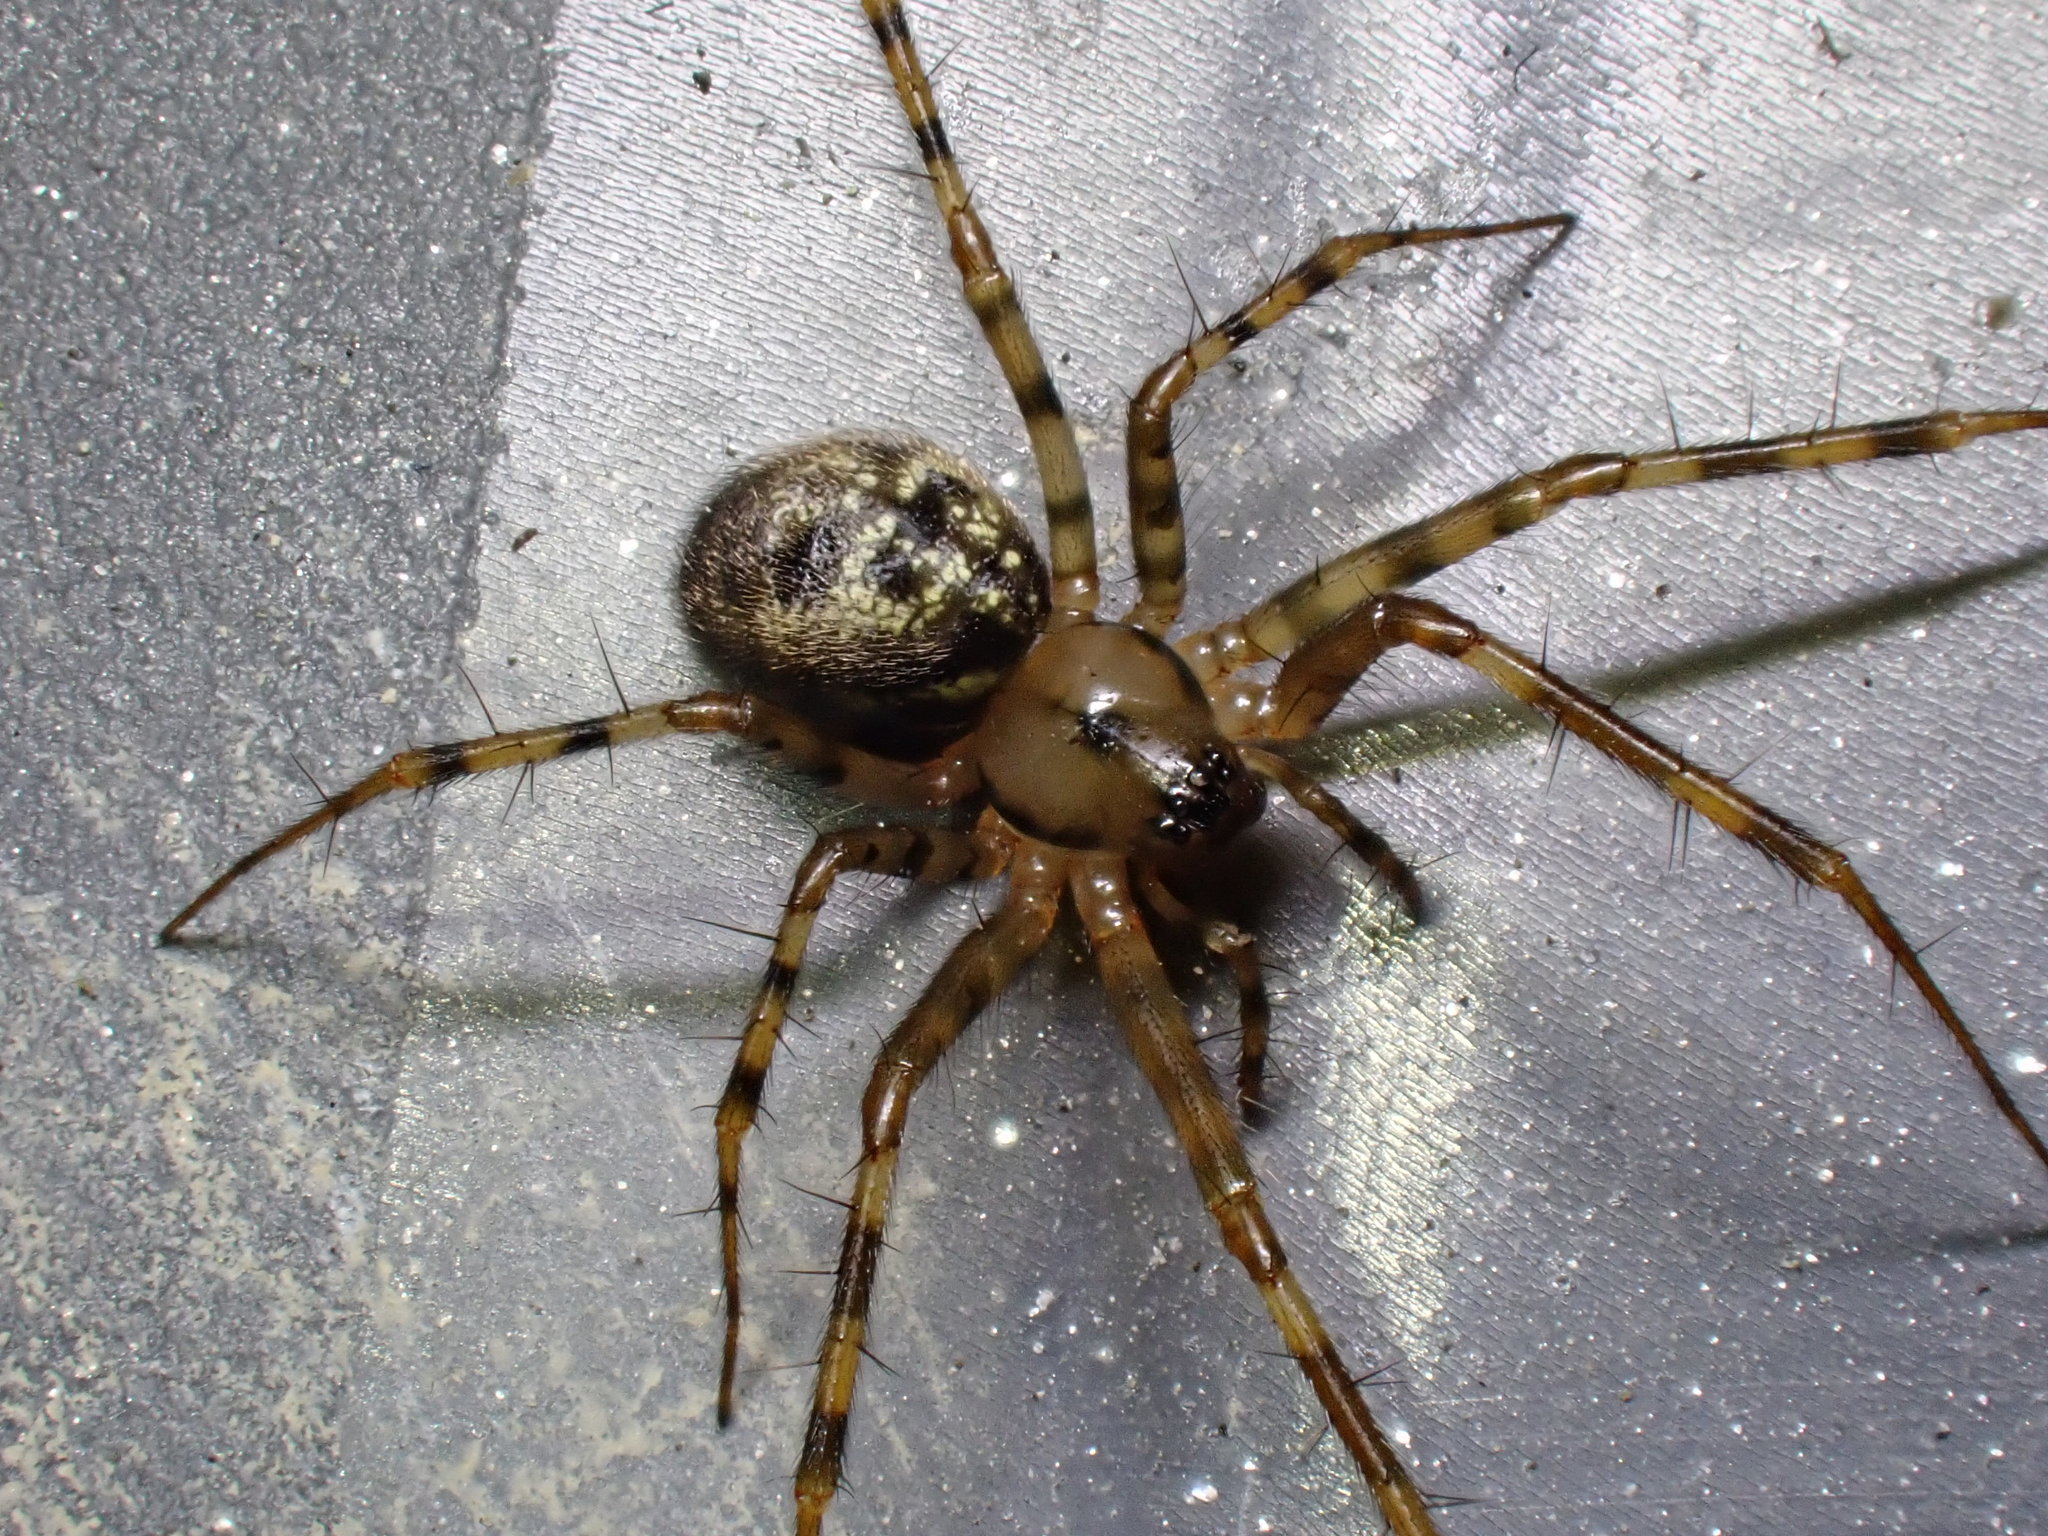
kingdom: Animalia
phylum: Arthropoda
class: Arachnida
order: Araneae
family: Linyphiidae
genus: Labulla
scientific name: Labulla thoracica
